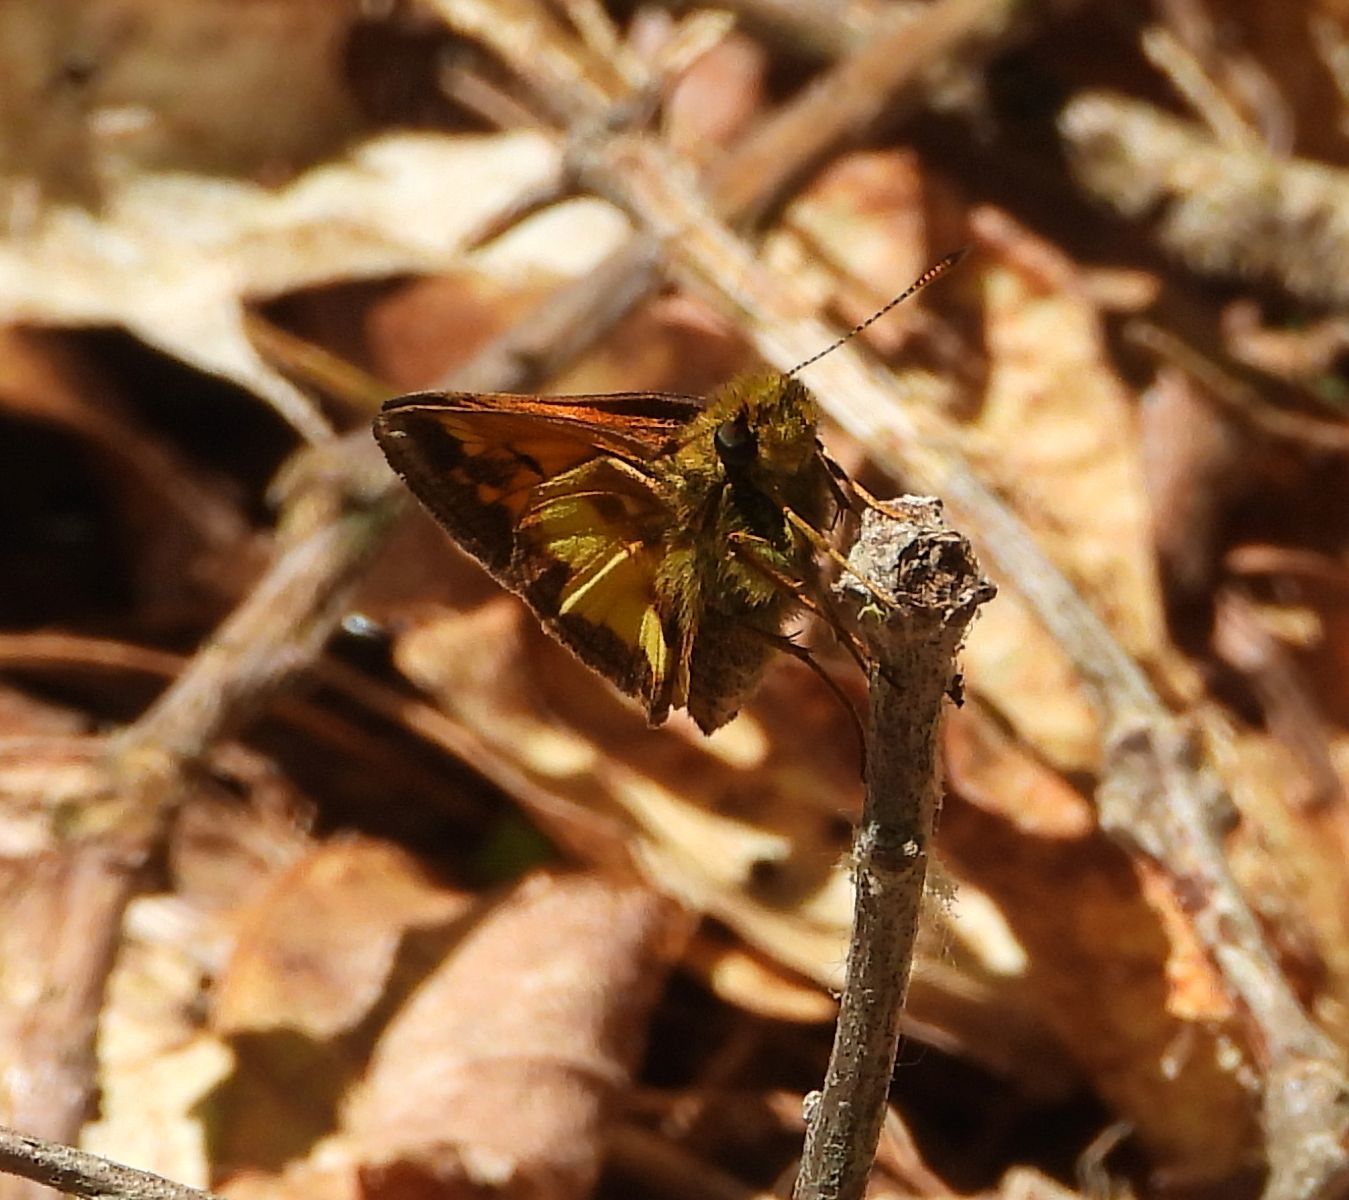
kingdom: Animalia
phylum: Arthropoda
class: Insecta
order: Lepidoptera
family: Hesperiidae
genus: Lon
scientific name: Lon hobomok
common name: Hobomok skipper
